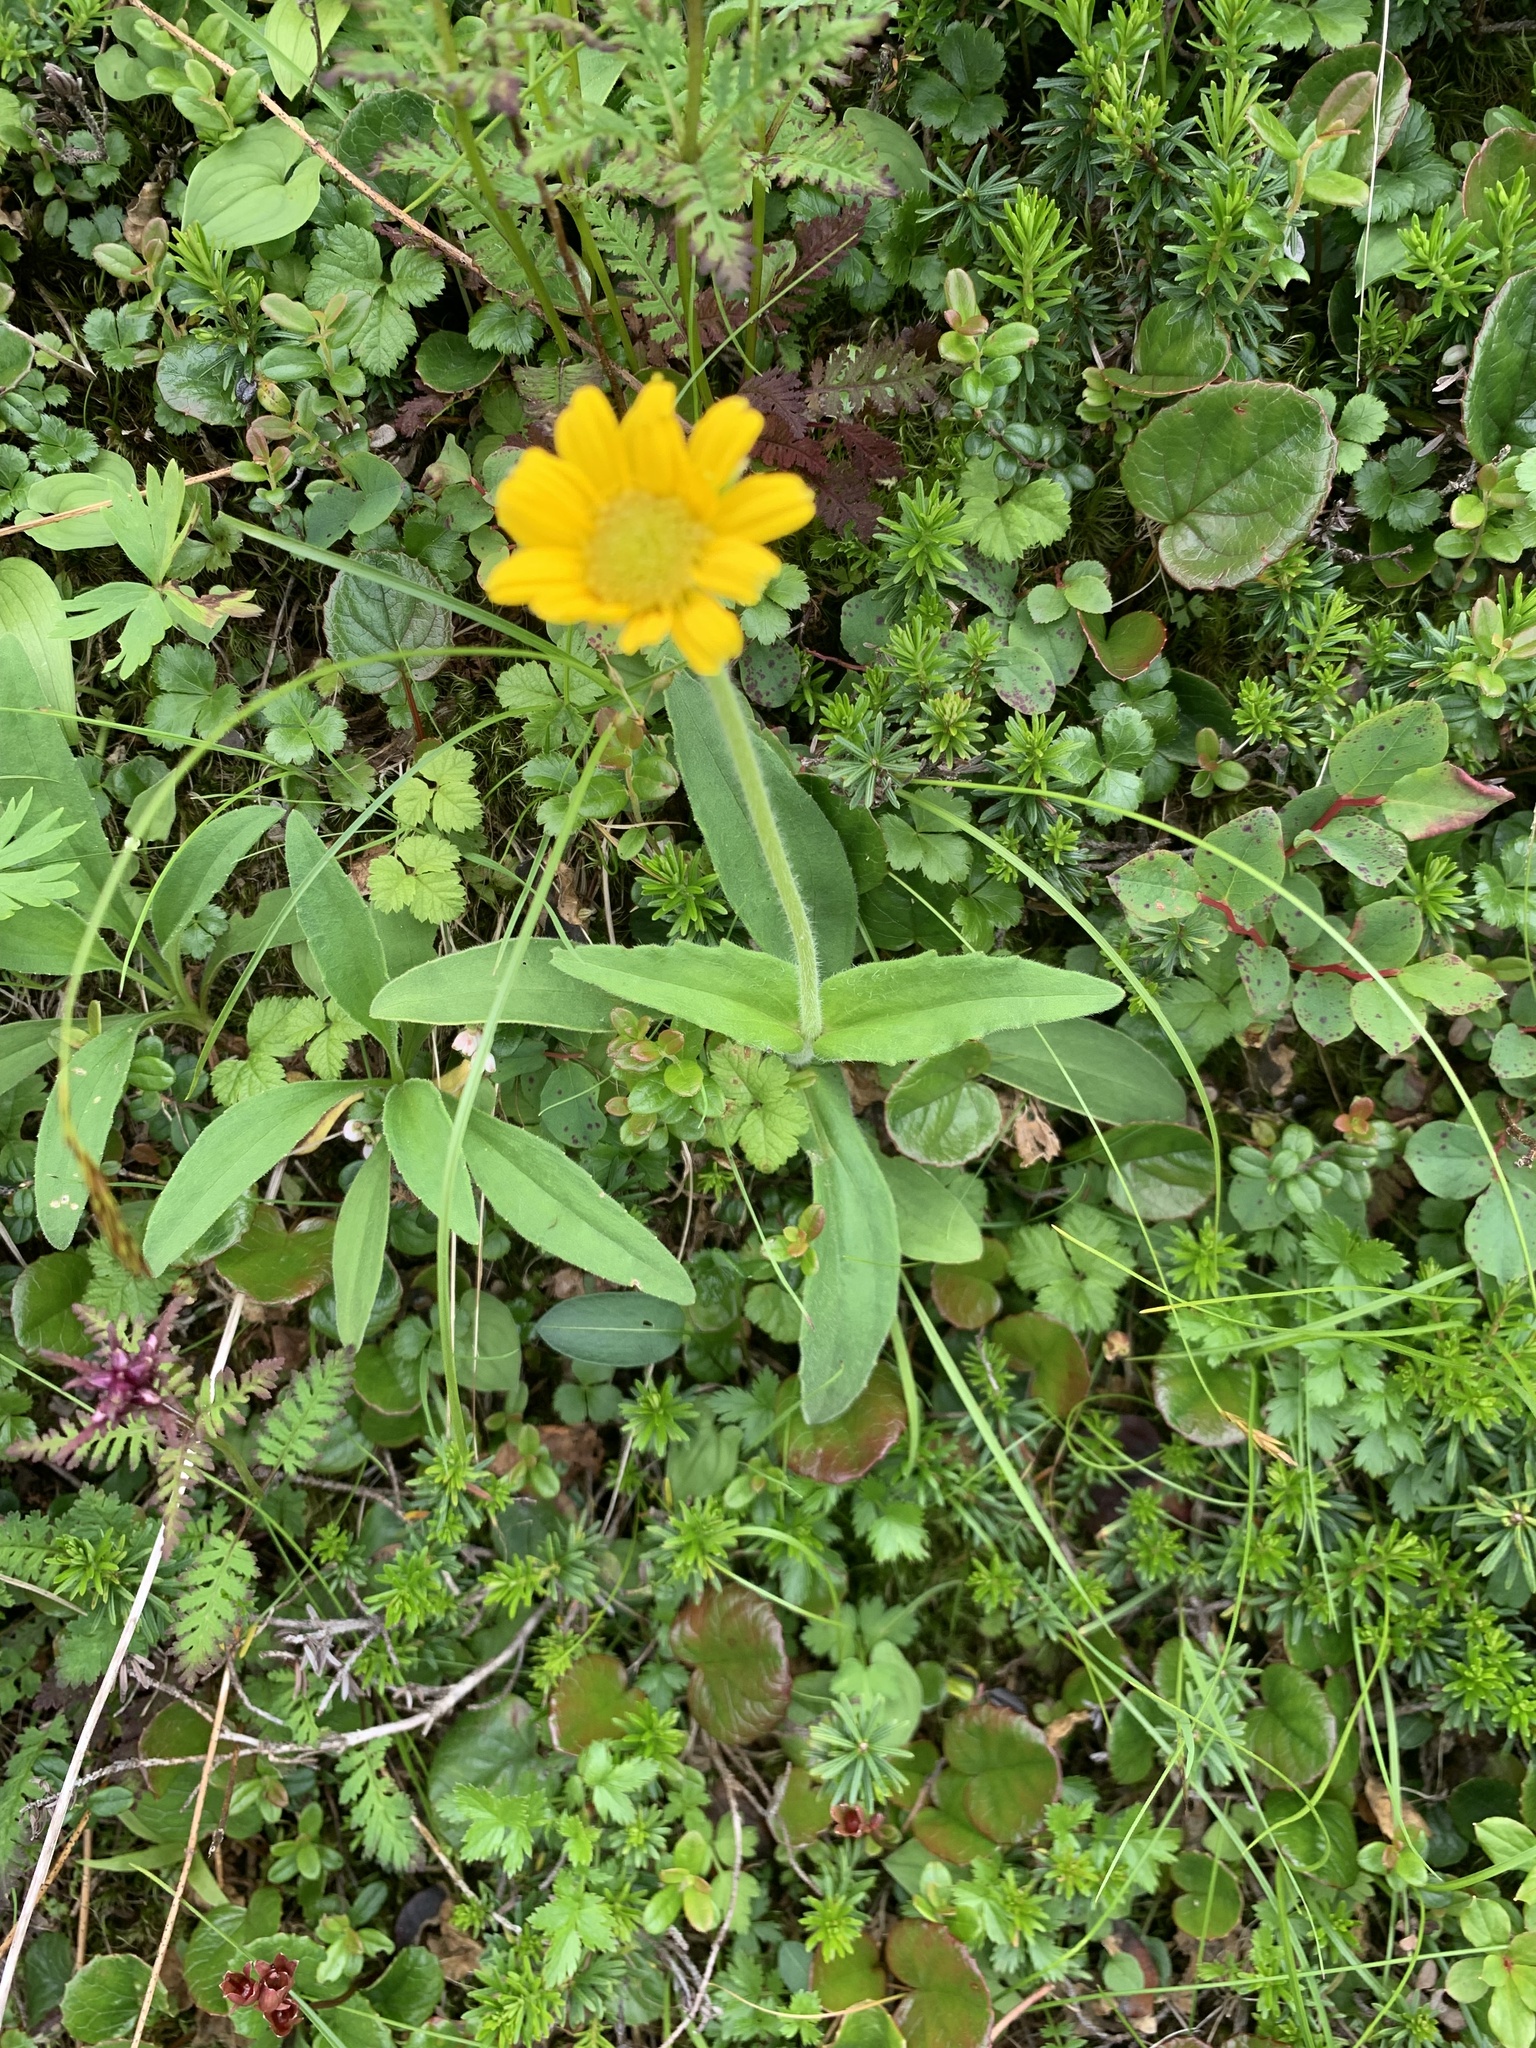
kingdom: Plantae
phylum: Tracheophyta
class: Magnoliopsida
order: Asterales
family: Asteraceae
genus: Arnica
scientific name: Arnica unalascensis
